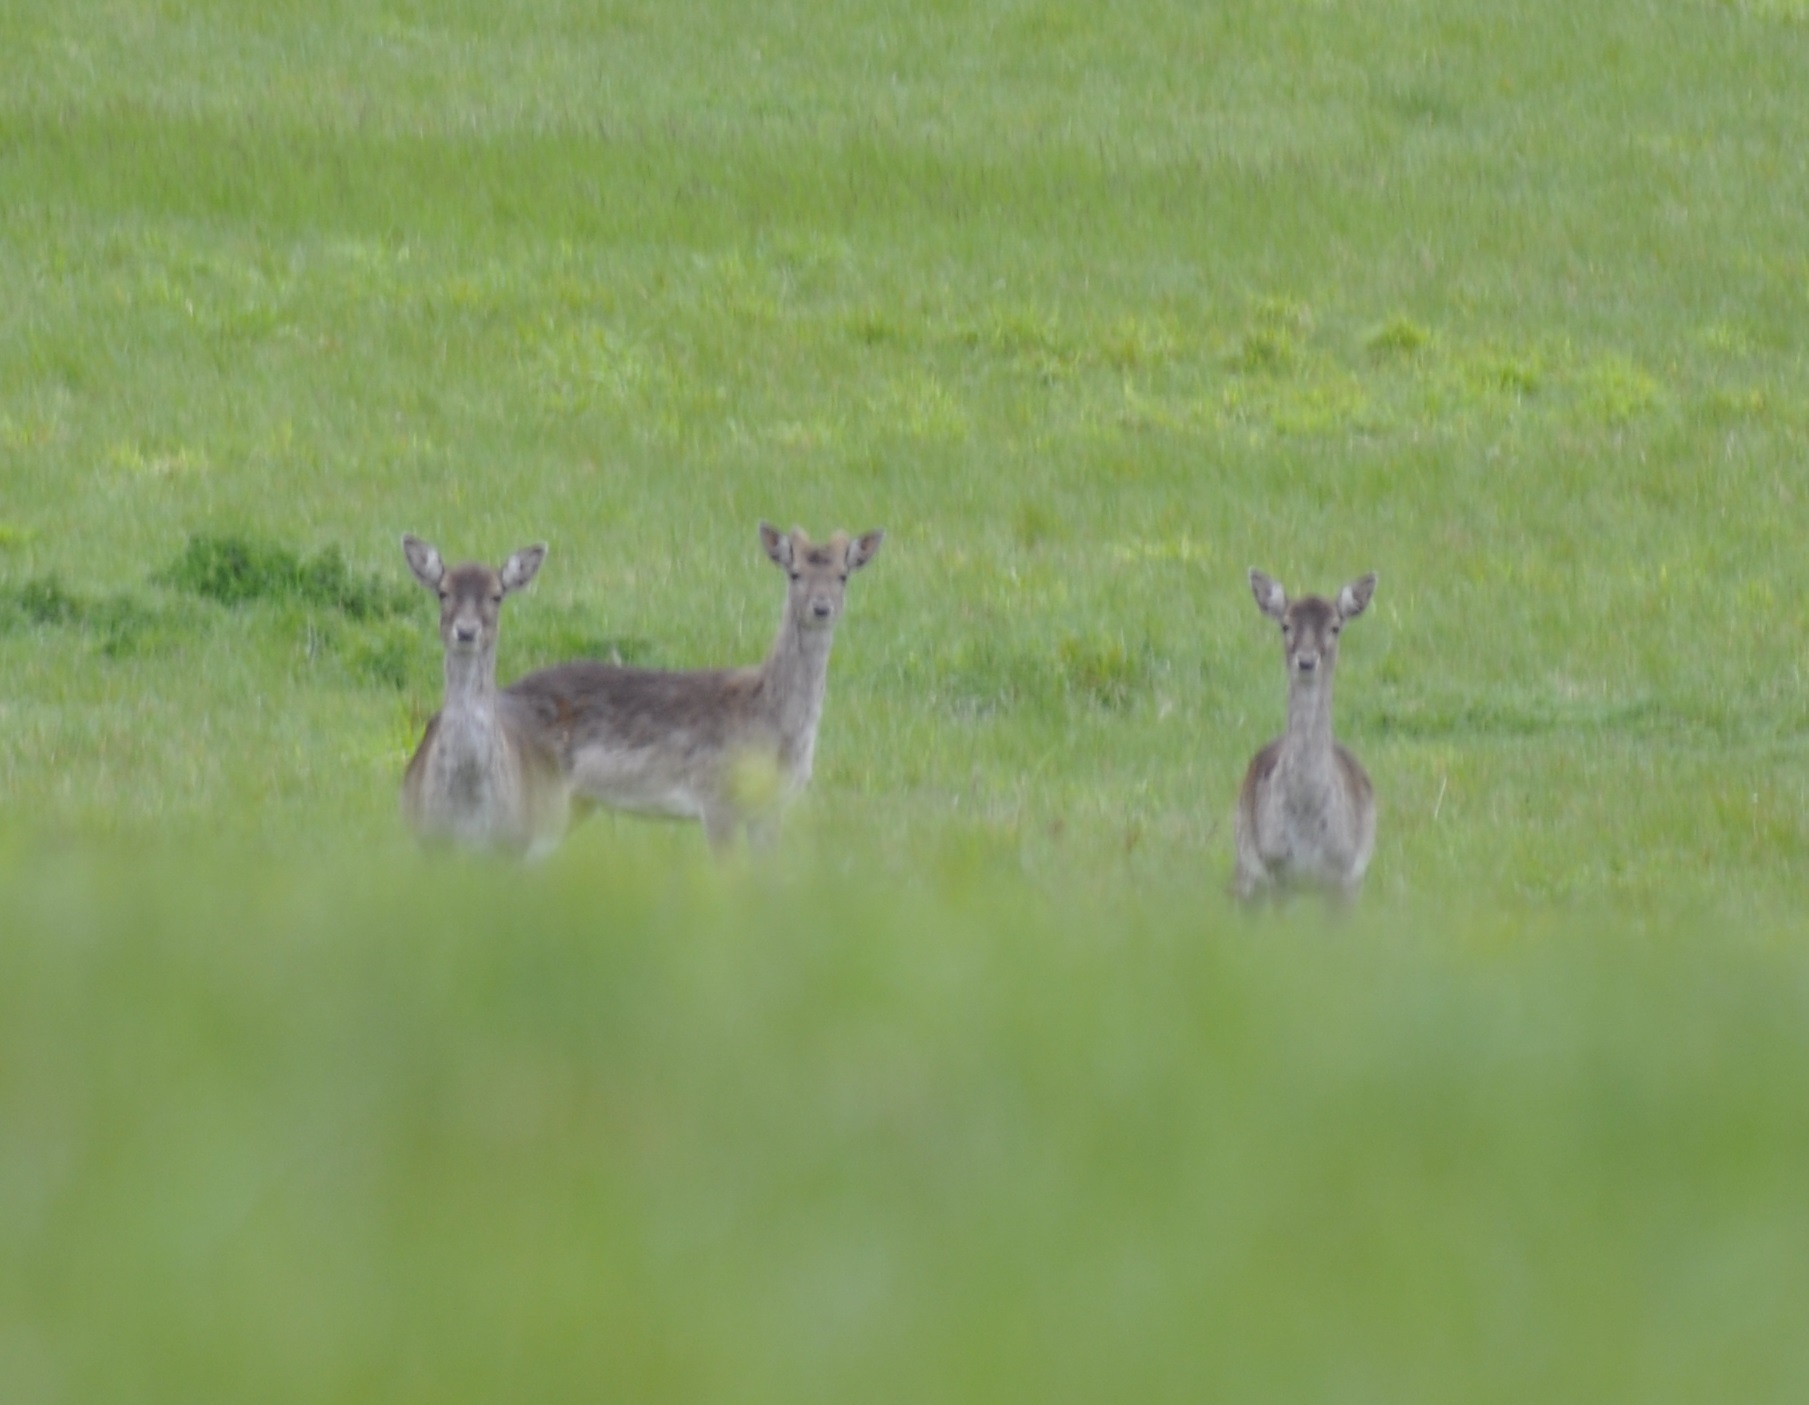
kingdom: Animalia
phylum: Chordata
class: Mammalia
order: Artiodactyla
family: Cervidae
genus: Dama
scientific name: Dama dama
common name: Fallow deer
